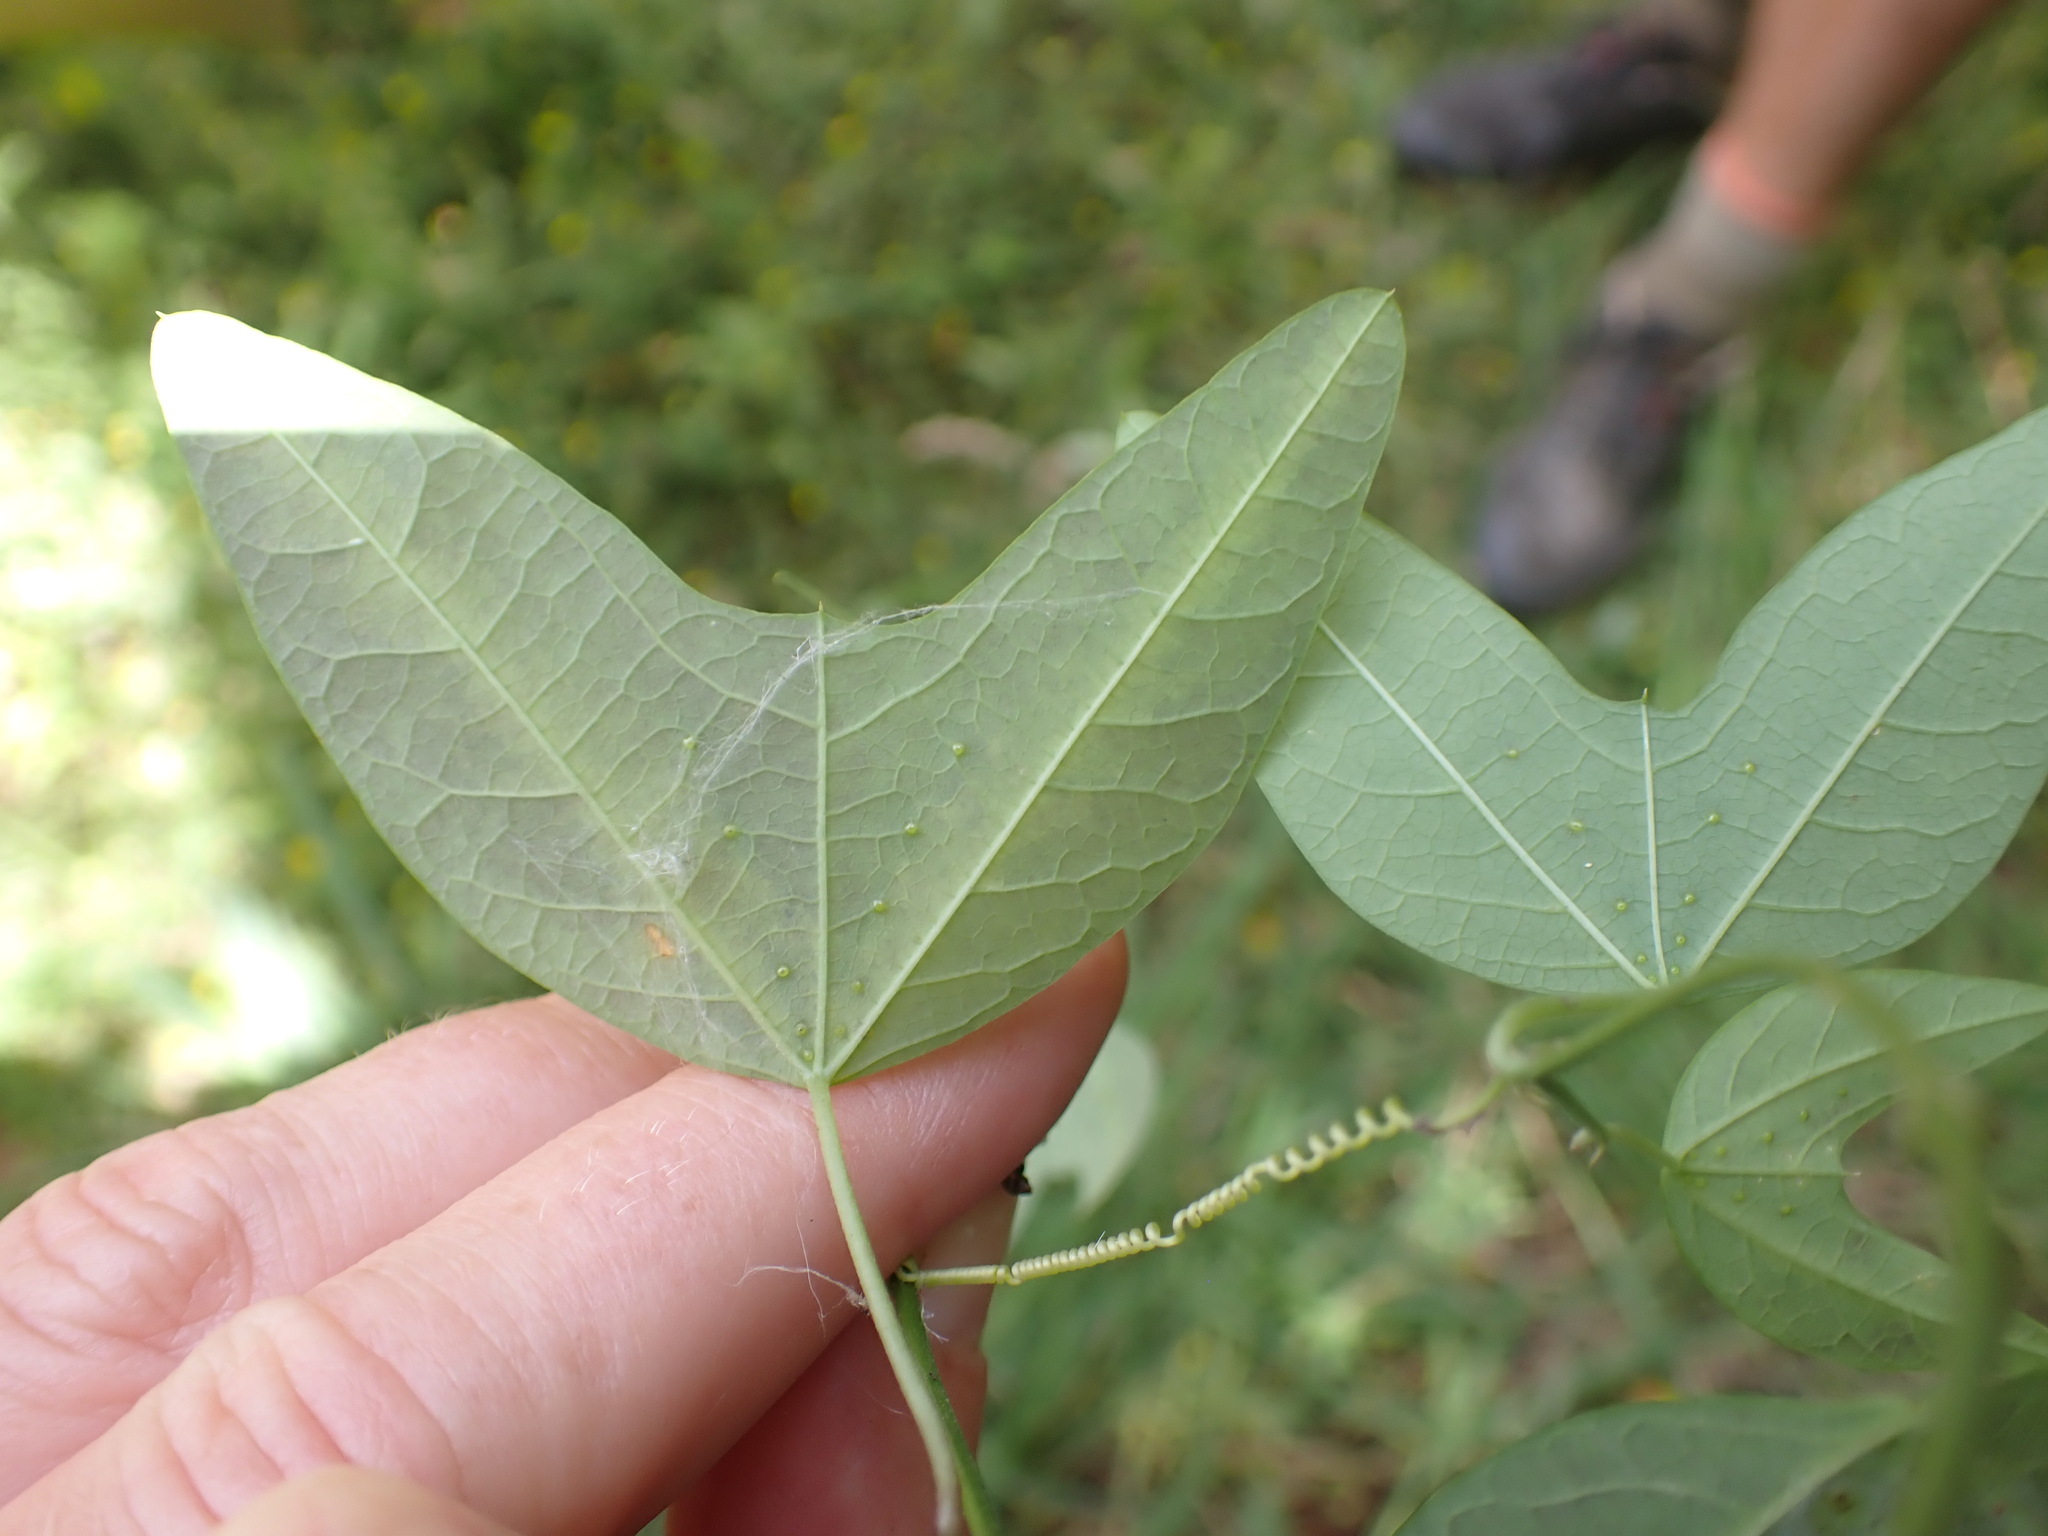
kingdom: Plantae
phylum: Tracheophyta
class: Magnoliopsida
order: Malpighiales
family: Passifloraceae
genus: Passiflora
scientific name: Passiflora apetala
